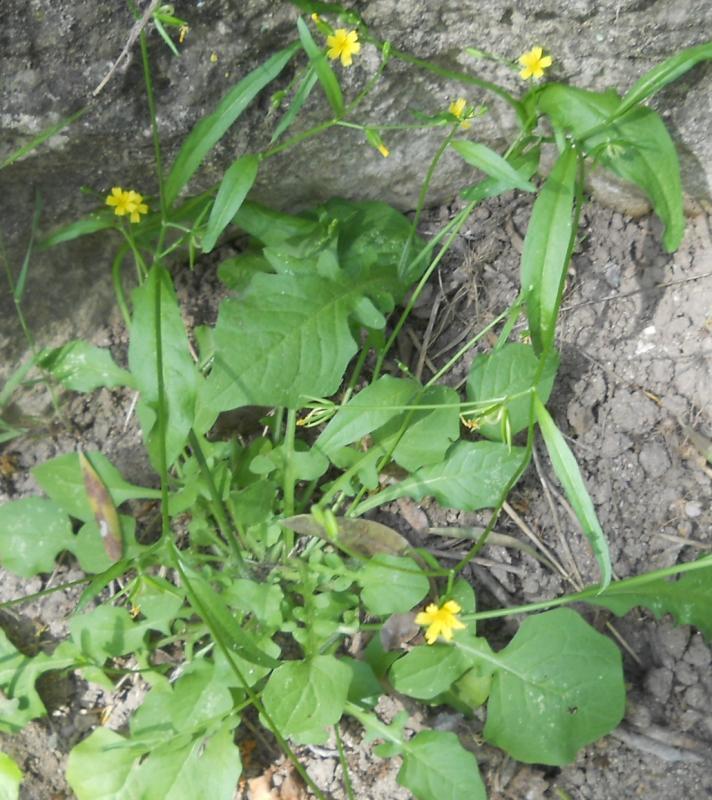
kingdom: Plantae
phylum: Tracheophyta
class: Magnoliopsida
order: Asterales
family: Asteraceae
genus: Rhagadiolus
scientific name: Rhagadiolus stellatus
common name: Star hawkbit
